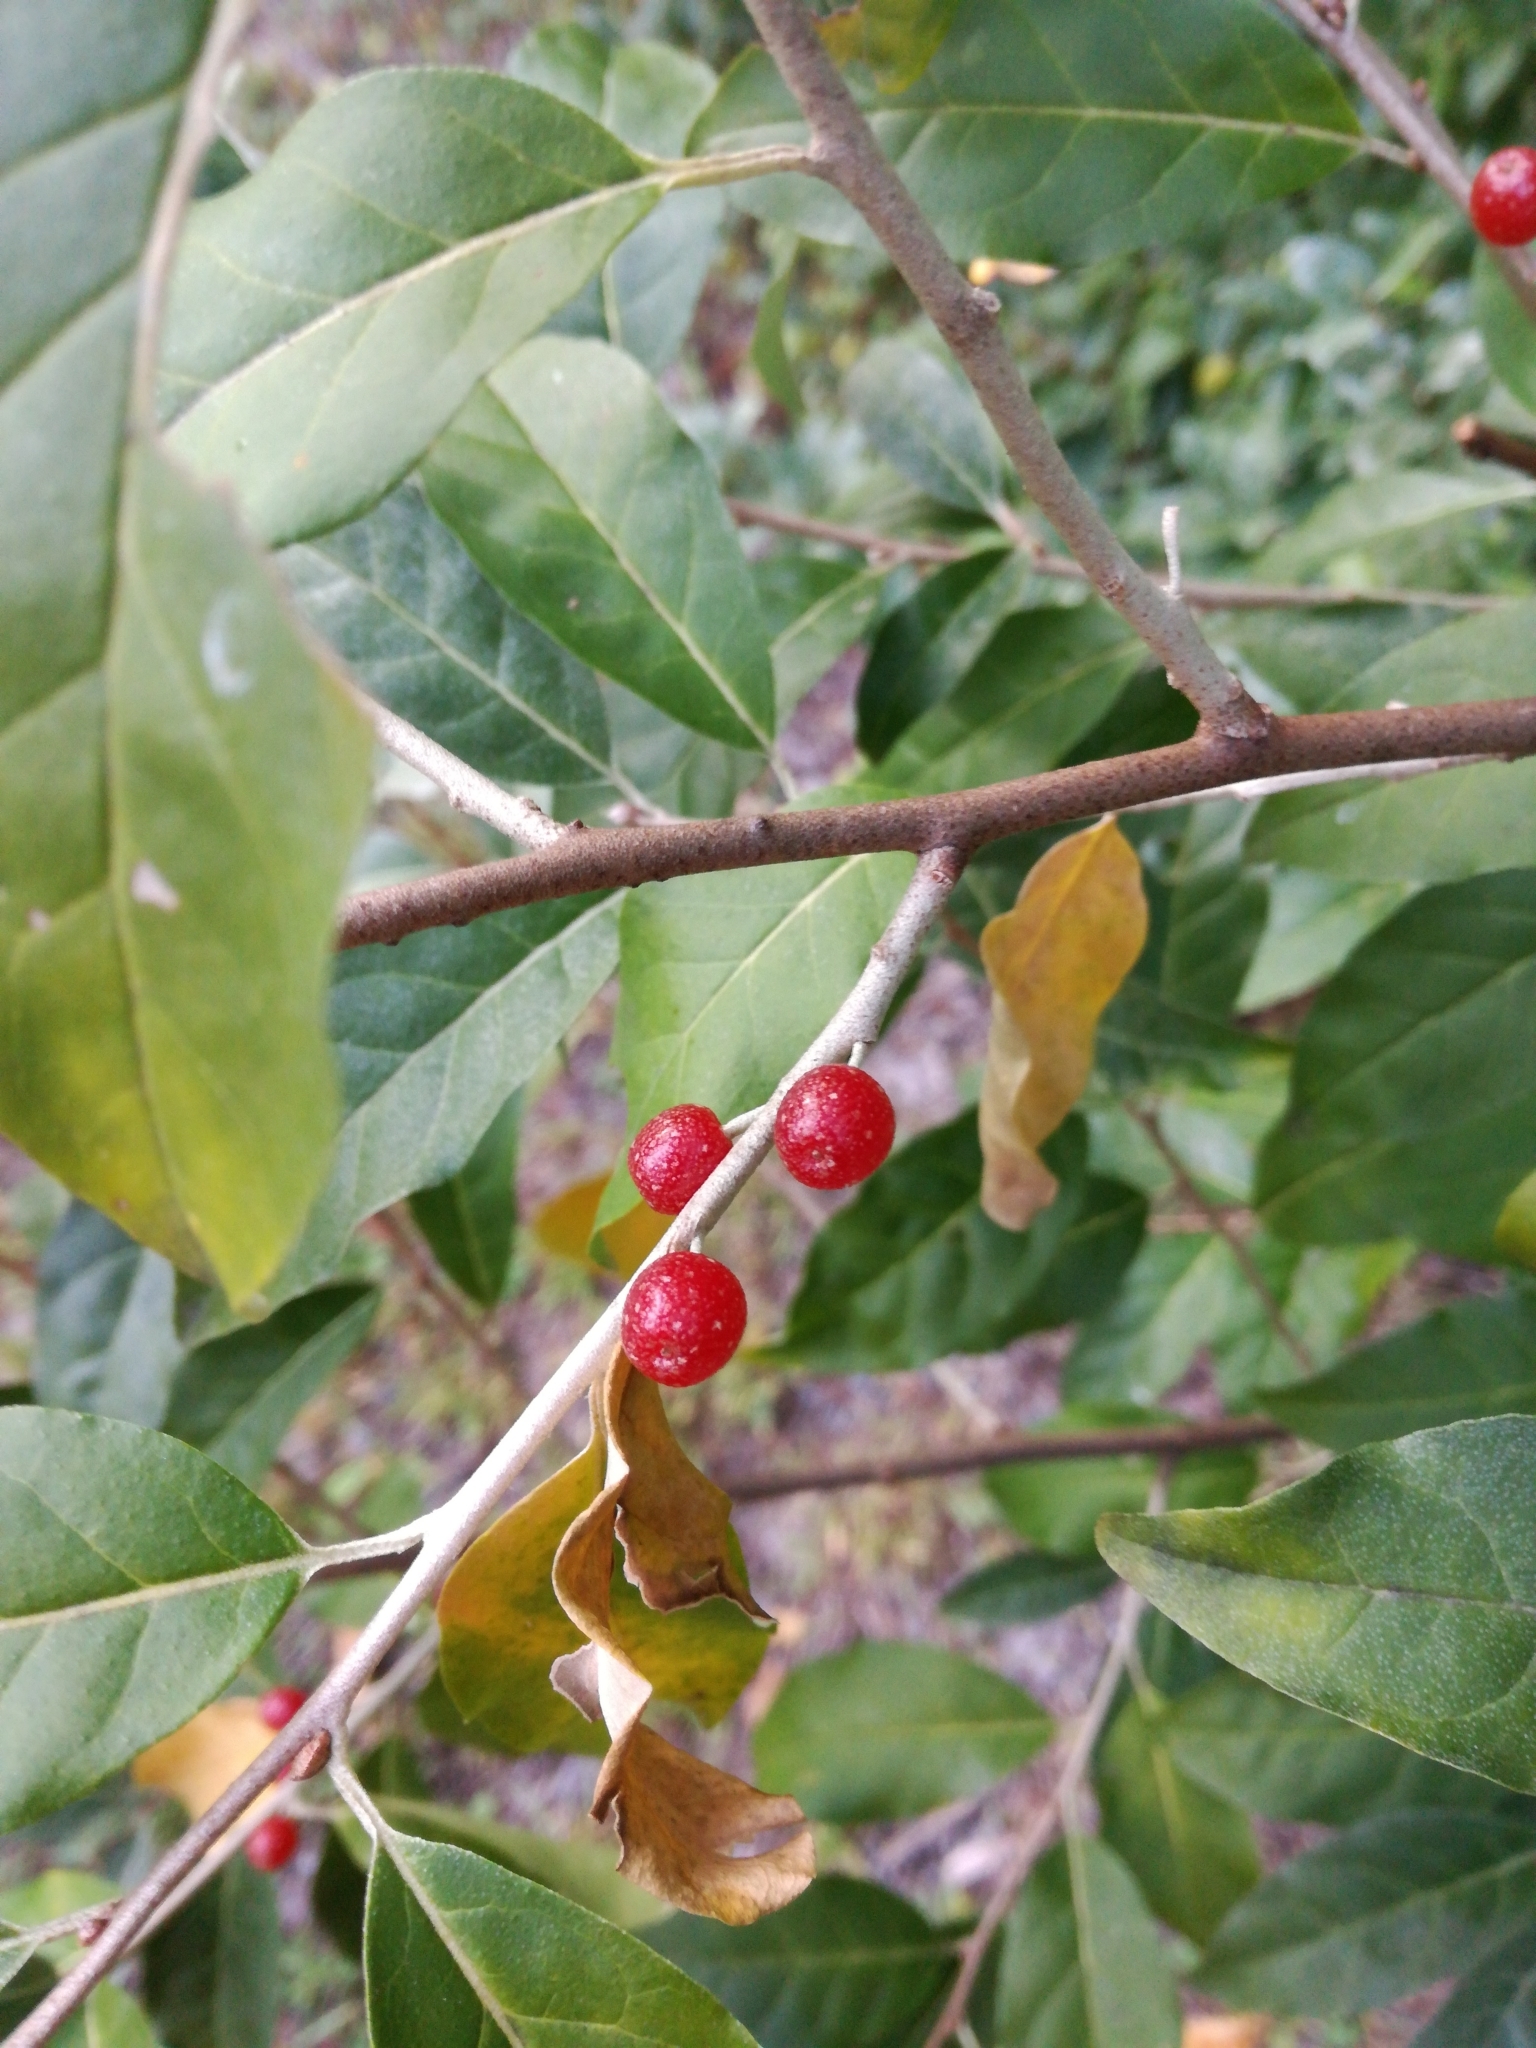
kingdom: Plantae
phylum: Tracheophyta
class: Magnoliopsida
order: Rosales
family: Elaeagnaceae
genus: Elaeagnus
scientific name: Elaeagnus umbellata
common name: Autumn olive
